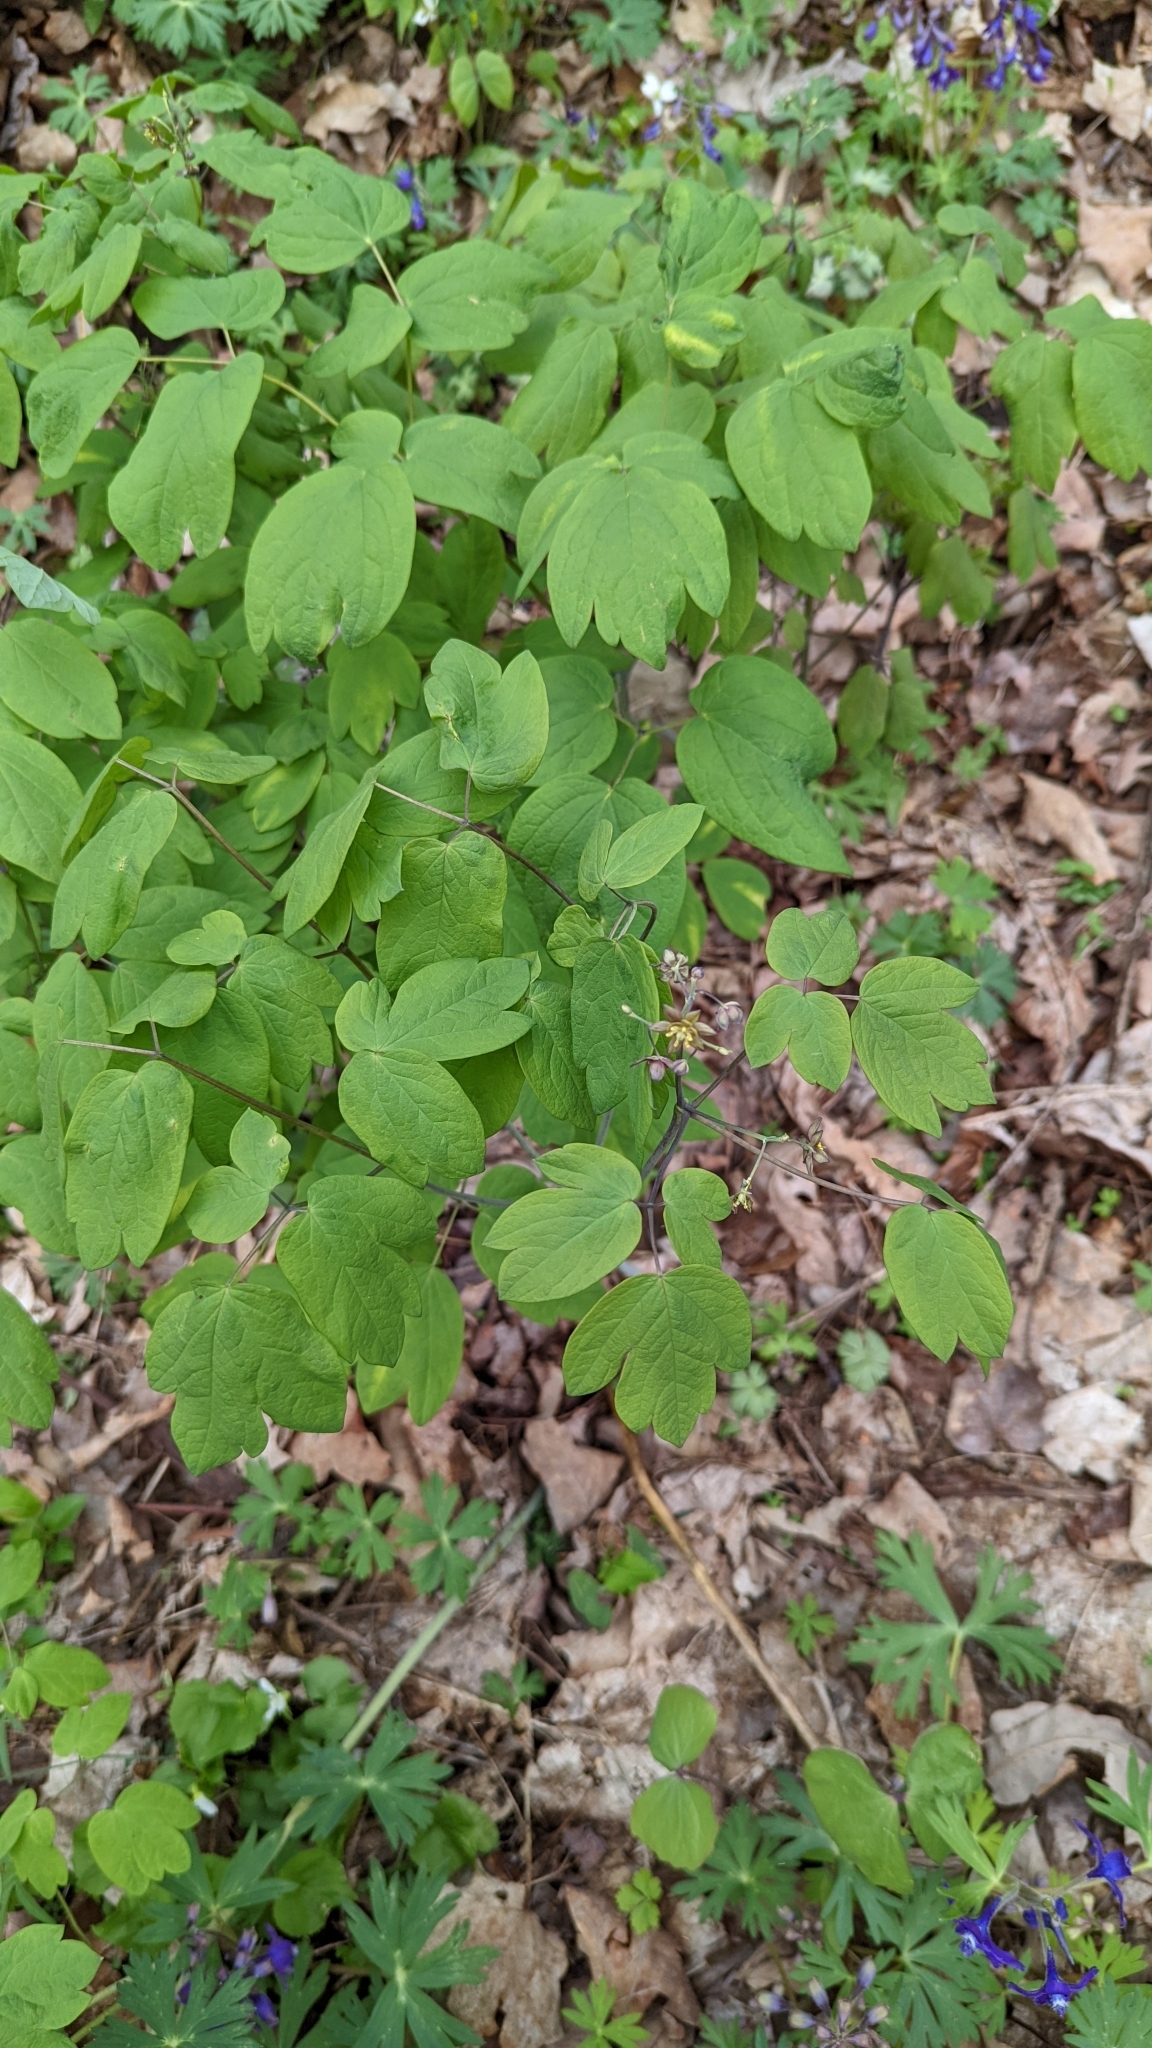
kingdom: Plantae
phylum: Tracheophyta
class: Magnoliopsida
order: Ranunculales
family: Berberidaceae
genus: Caulophyllum
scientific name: Caulophyllum thalictroides
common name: Blue cohosh
